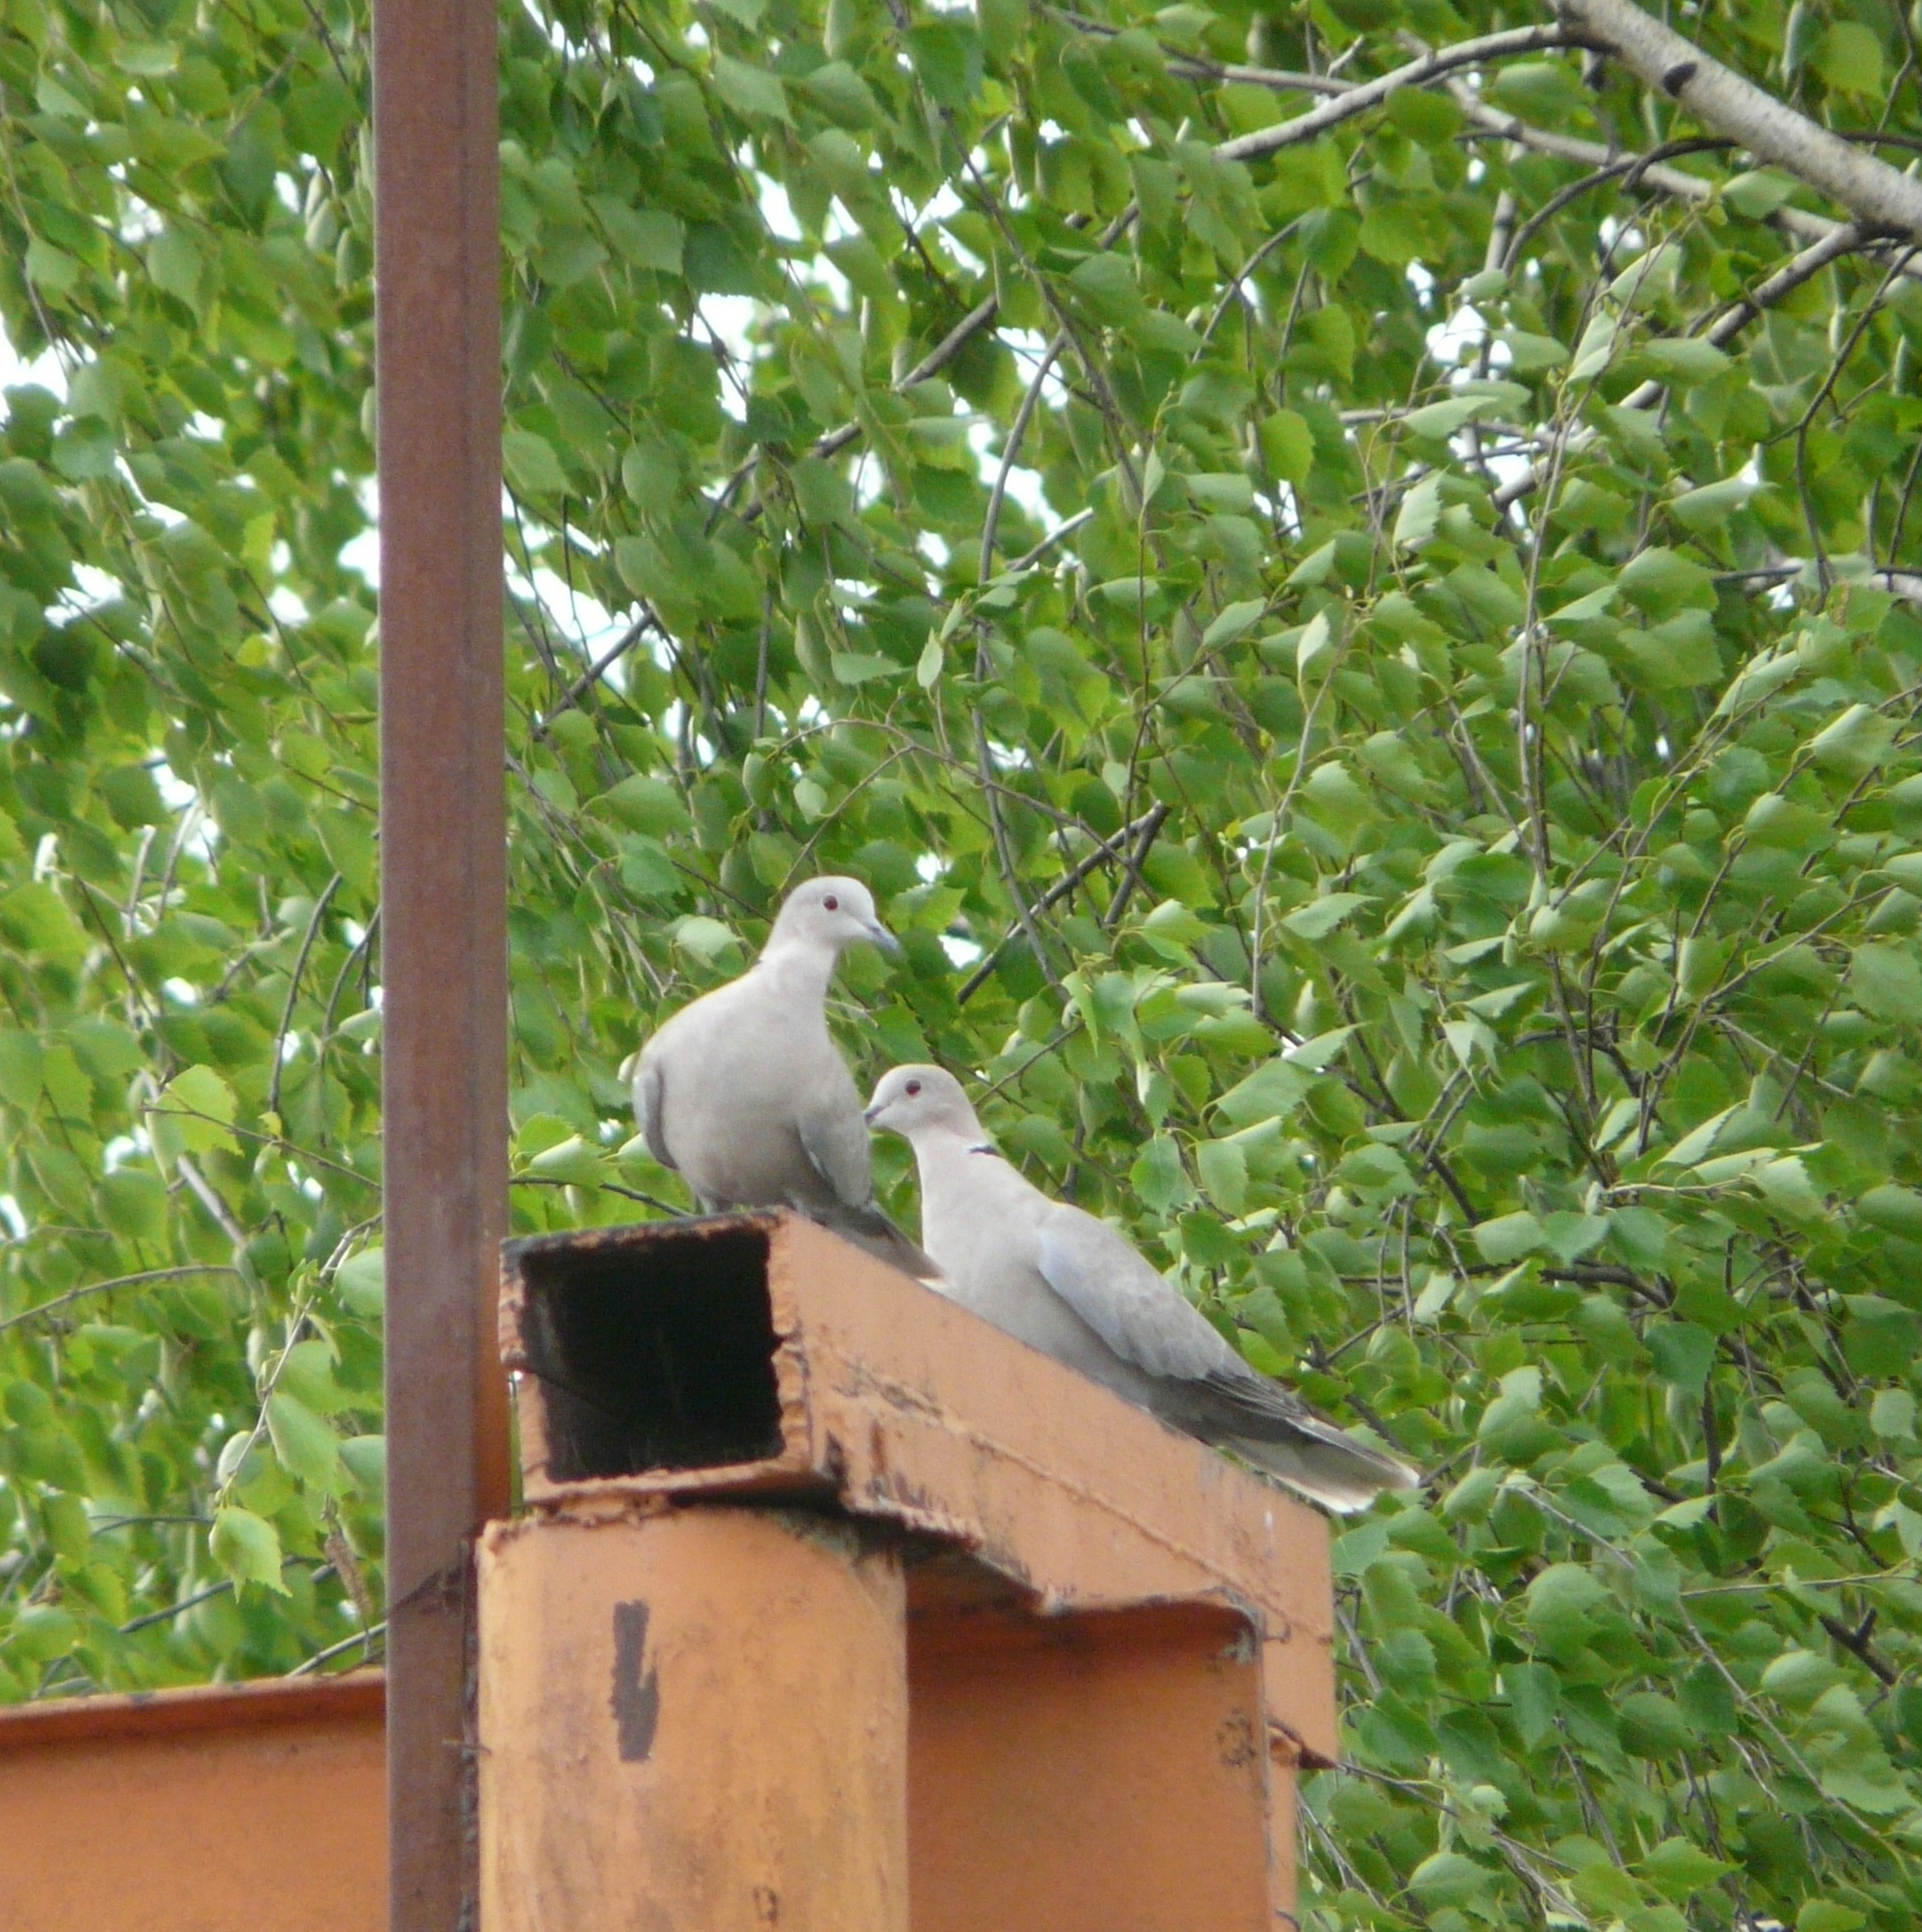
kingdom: Animalia
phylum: Chordata
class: Aves
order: Columbiformes
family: Columbidae
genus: Streptopelia
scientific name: Streptopelia decaocto
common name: Eurasian collared dove
